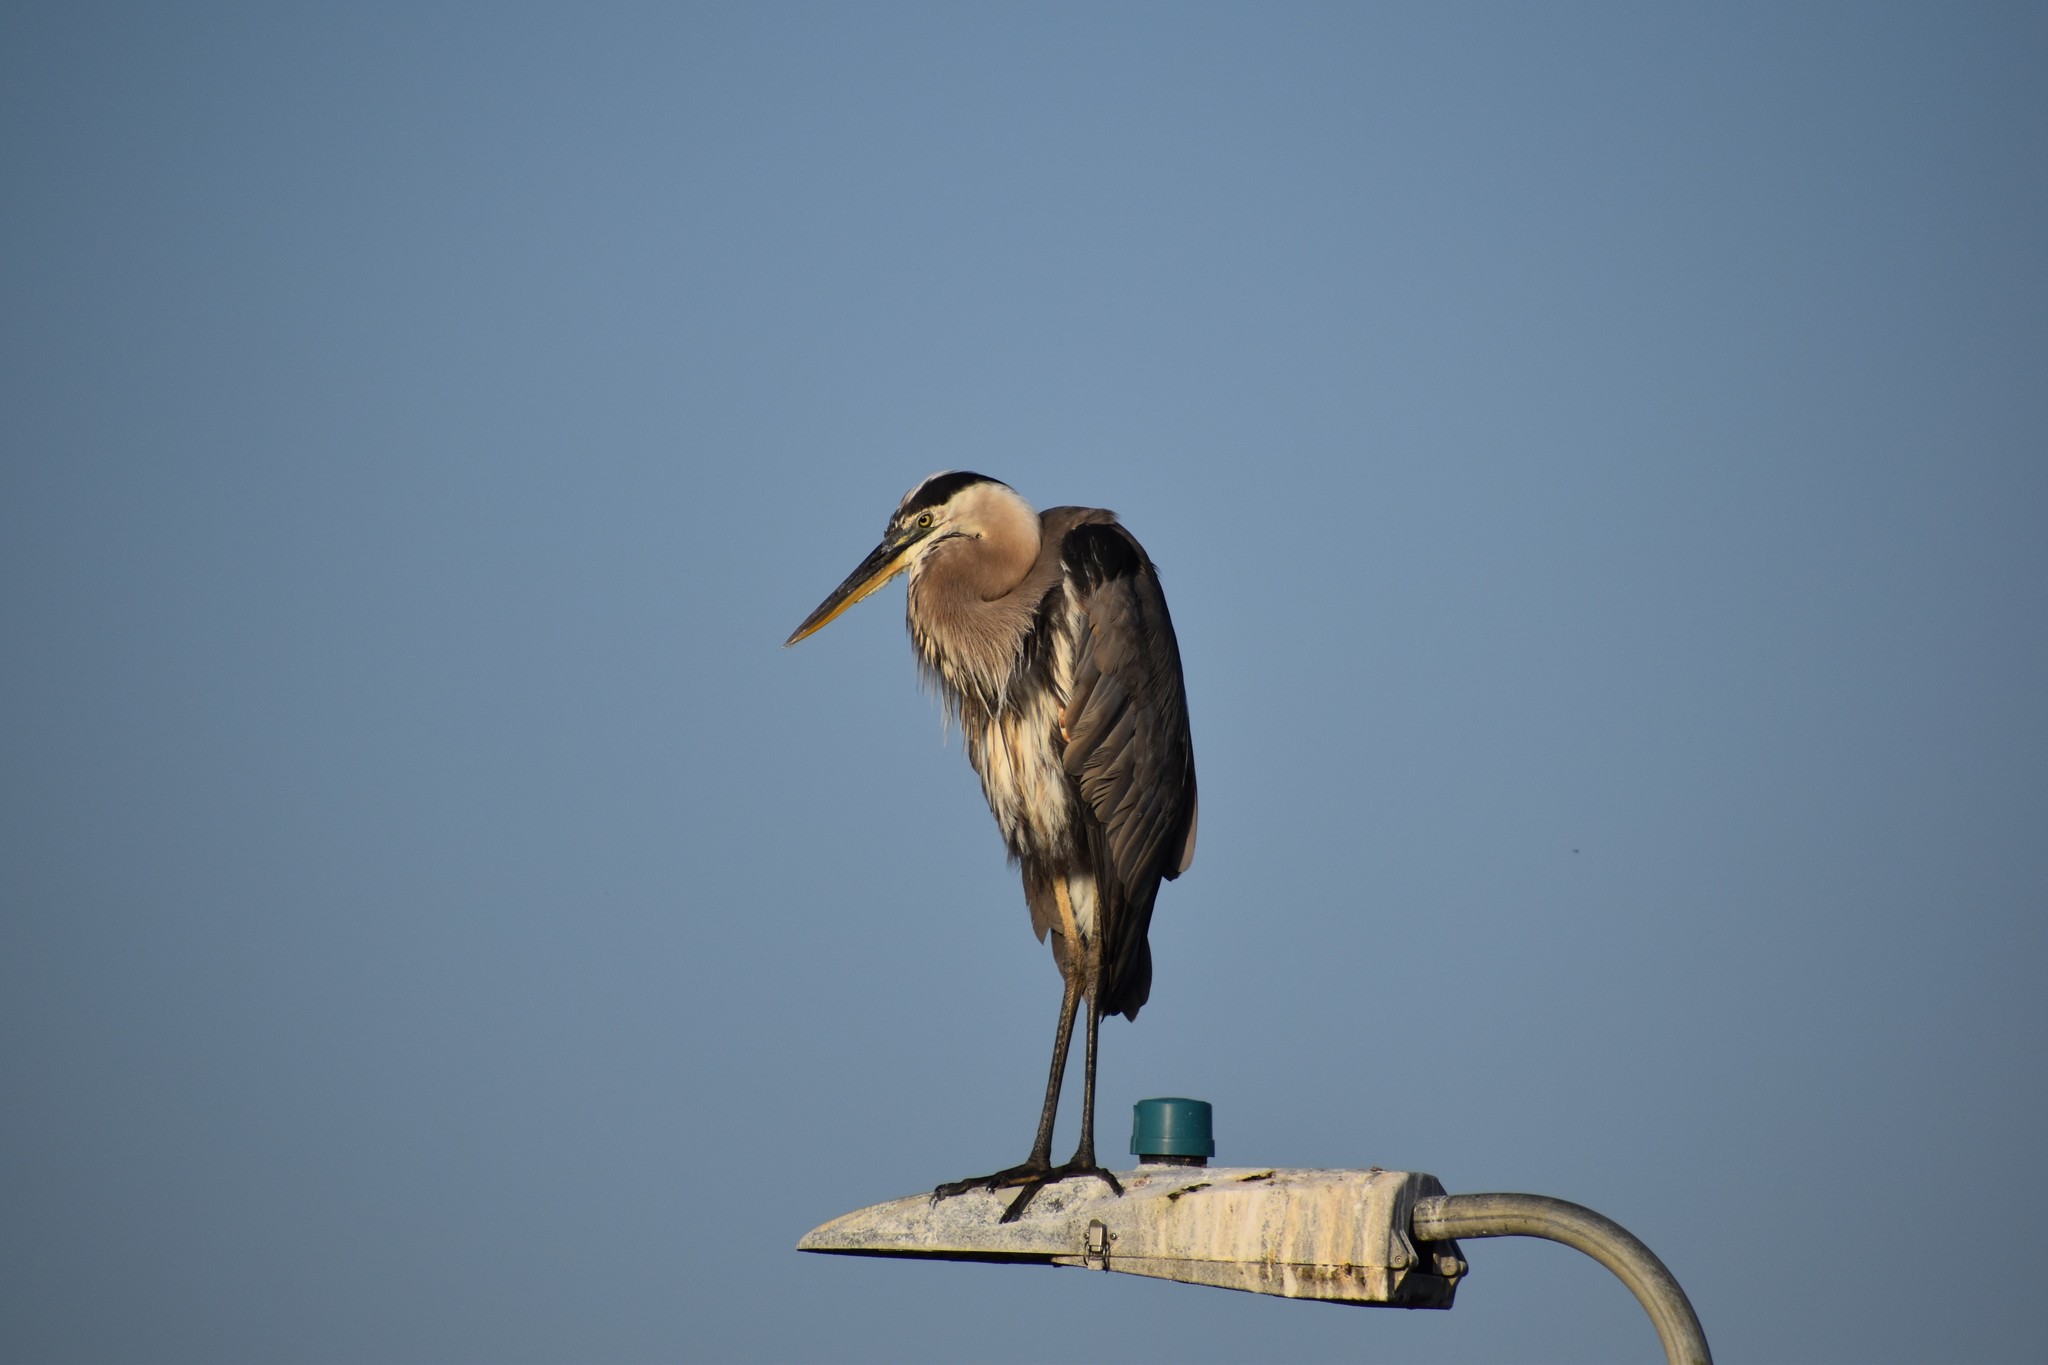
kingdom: Animalia
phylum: Chordata
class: Aves
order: Pelecaniformes
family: Ardeidae
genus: Ardea
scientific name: Ardea herodias
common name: Great blue heron
